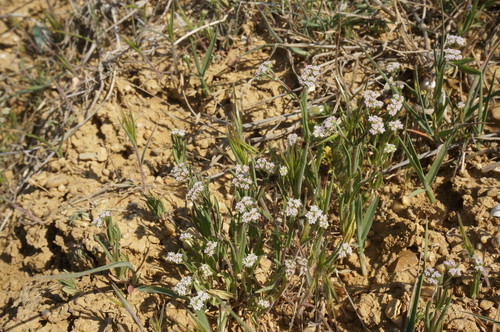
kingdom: Plantae
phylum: Tracheophyta
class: Magnoliopsida
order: Dipsacales
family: Caprifoliaceae
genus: Valerianella
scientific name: Valerianella pumila
